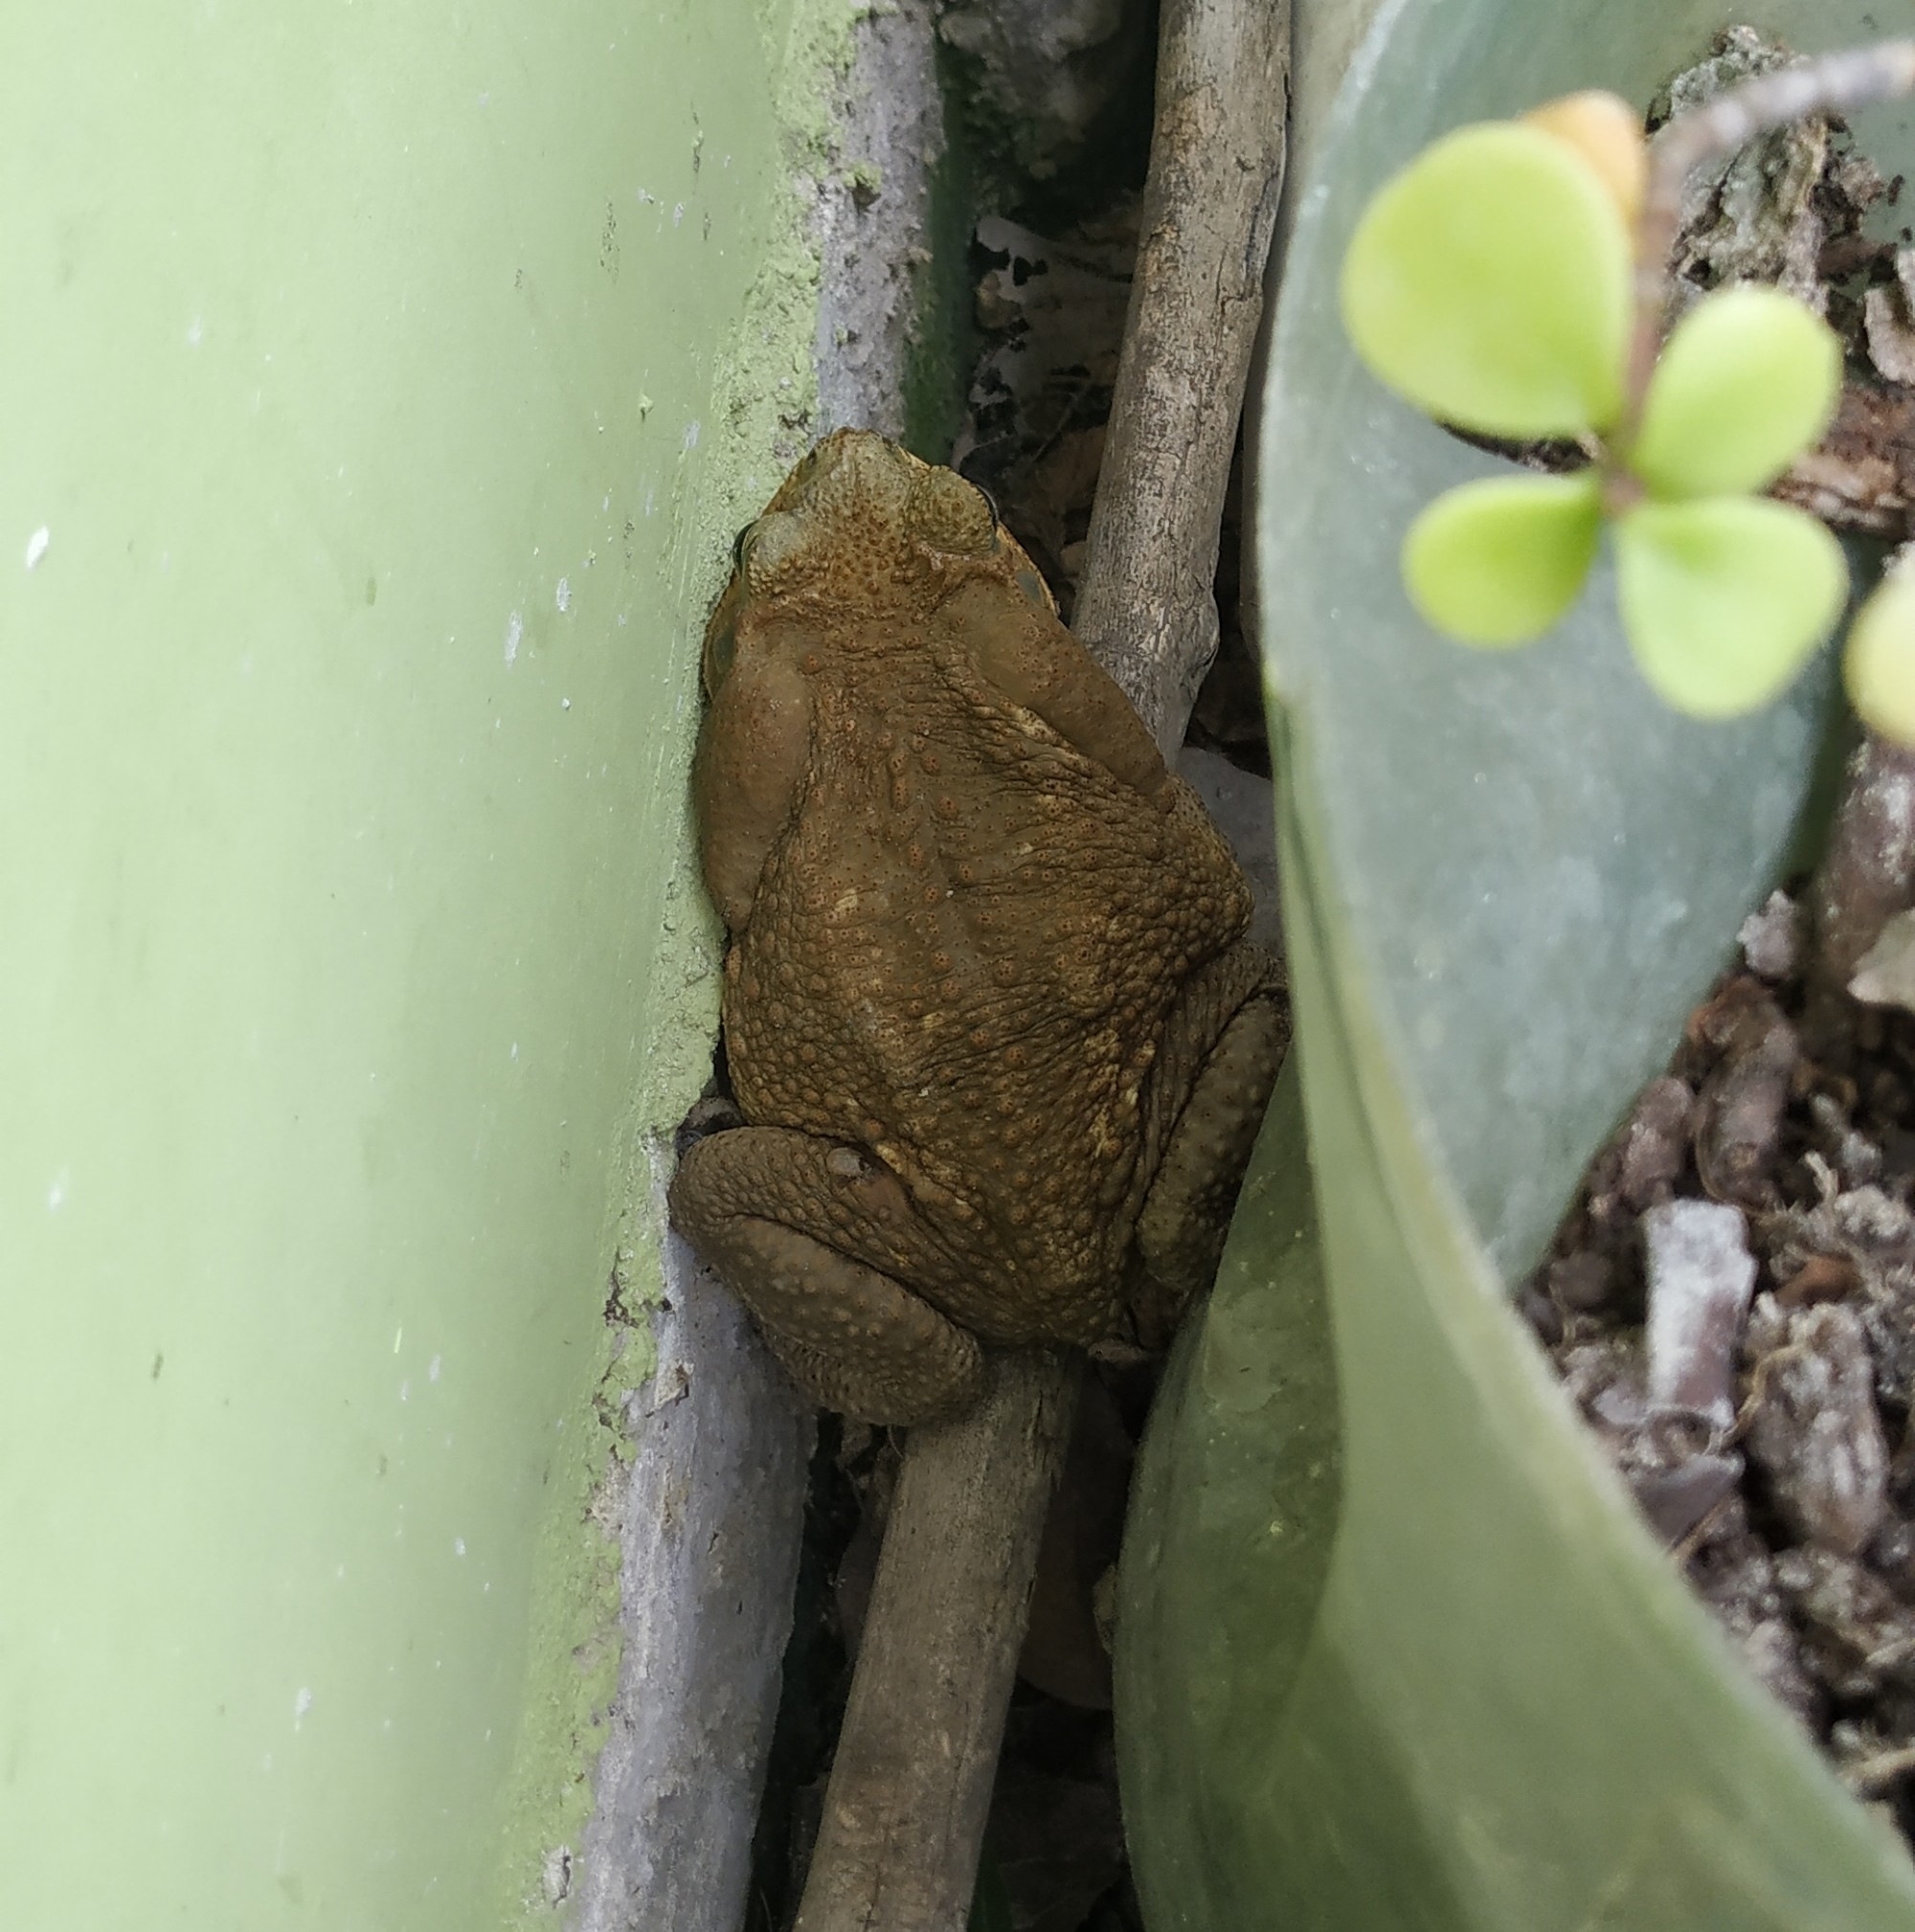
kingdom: Animalia
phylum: Chordata
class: Amphibia
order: Anura
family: Bufonidae
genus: Rhinella
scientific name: Rhinella horribilis
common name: Mesoamerican cane toad
